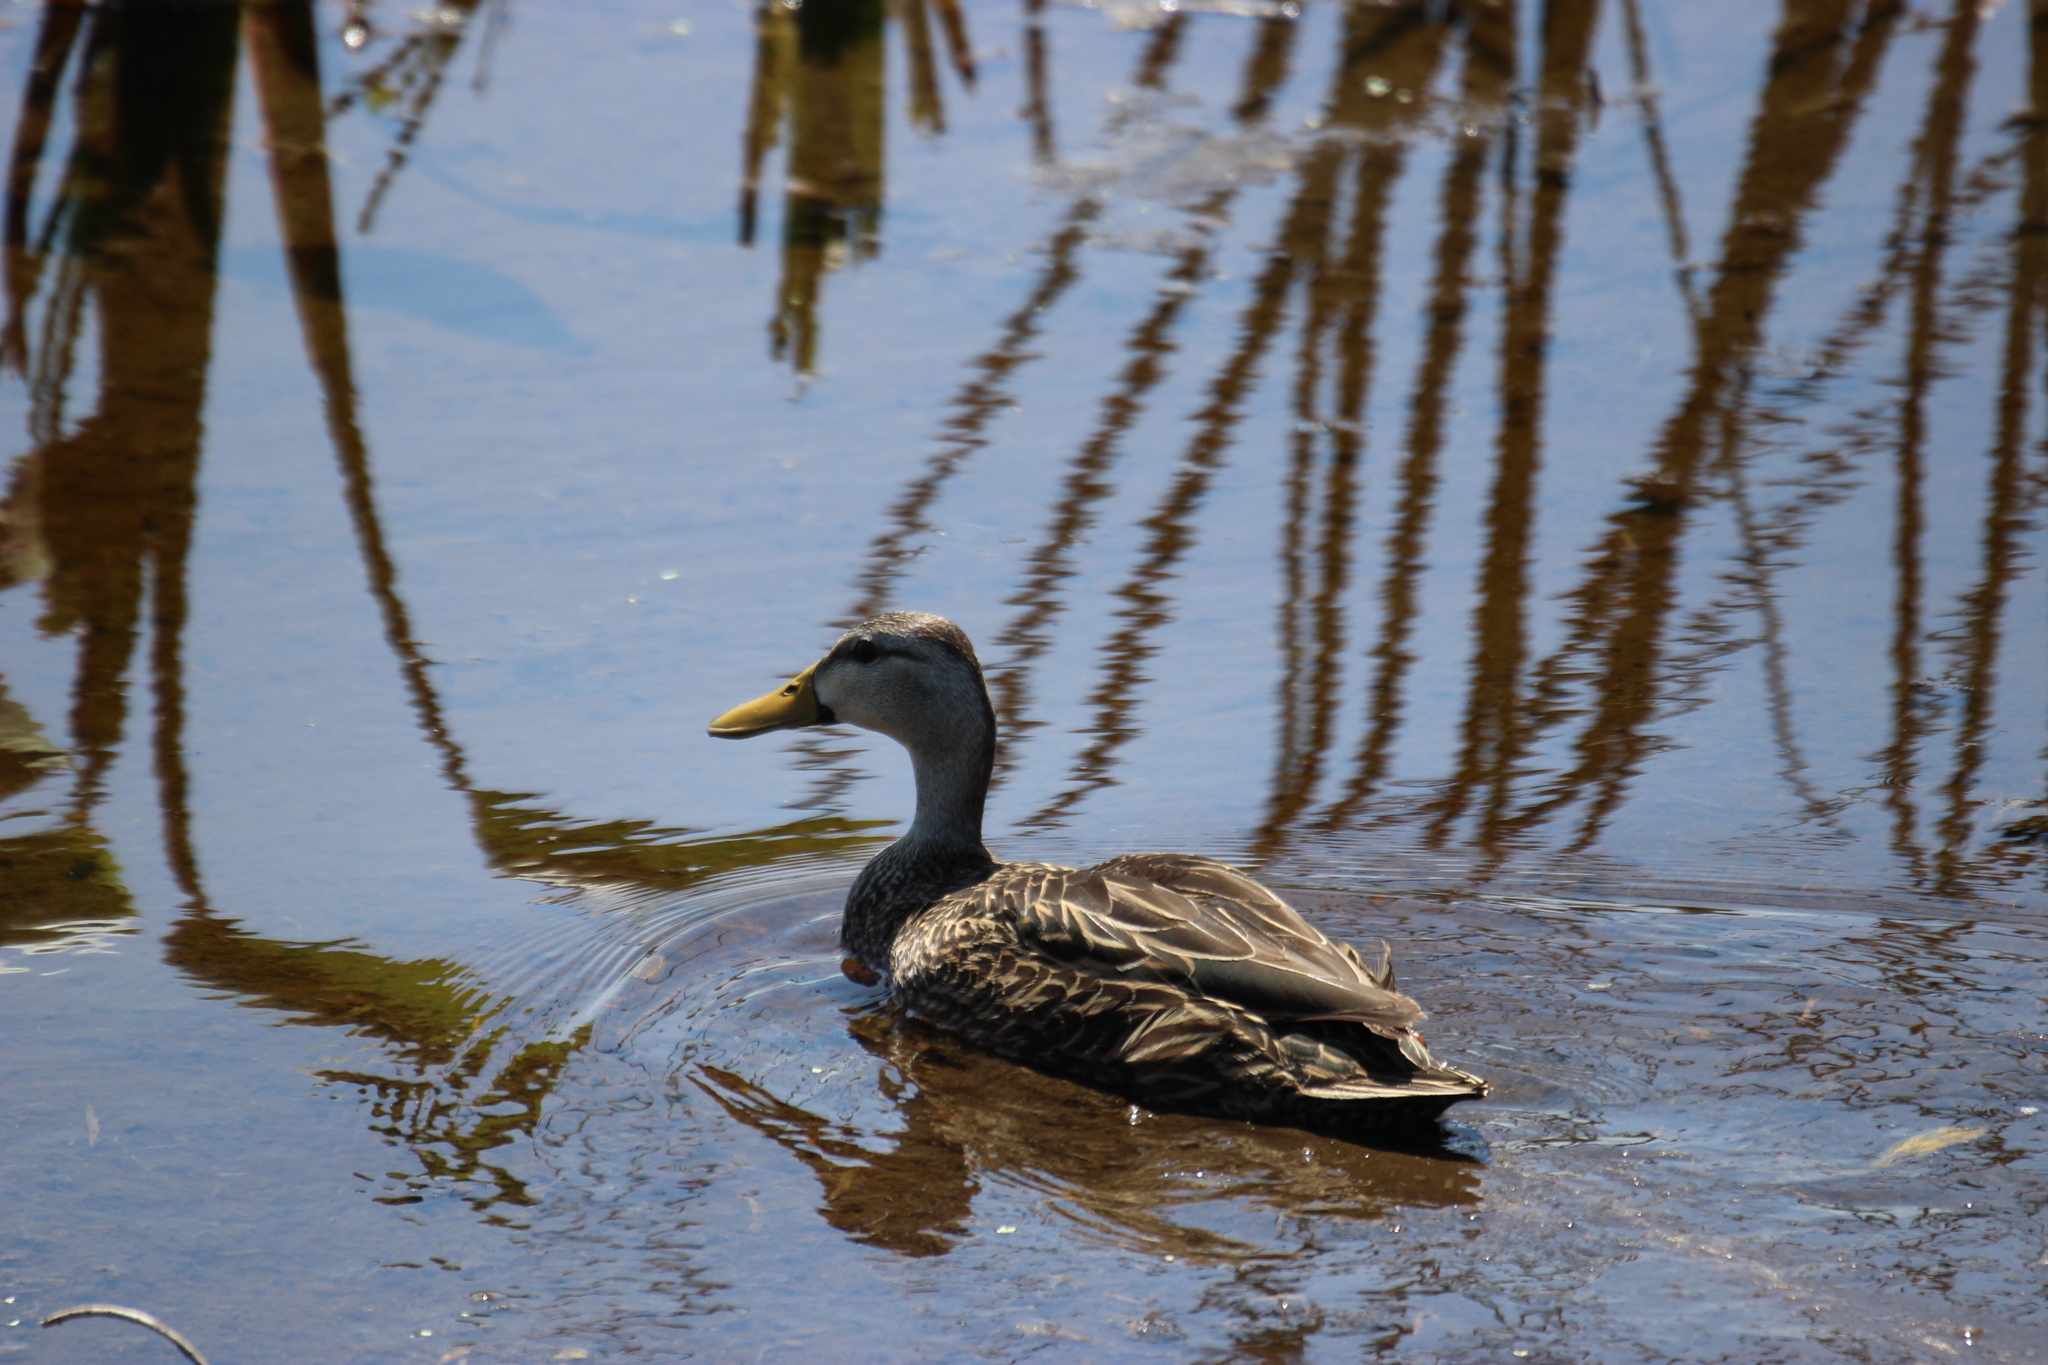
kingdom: Animalia
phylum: Chordata
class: Aves
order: Anseriformes
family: Anatidae
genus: Anas
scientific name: Anas fulvigula
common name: Mottled duck
